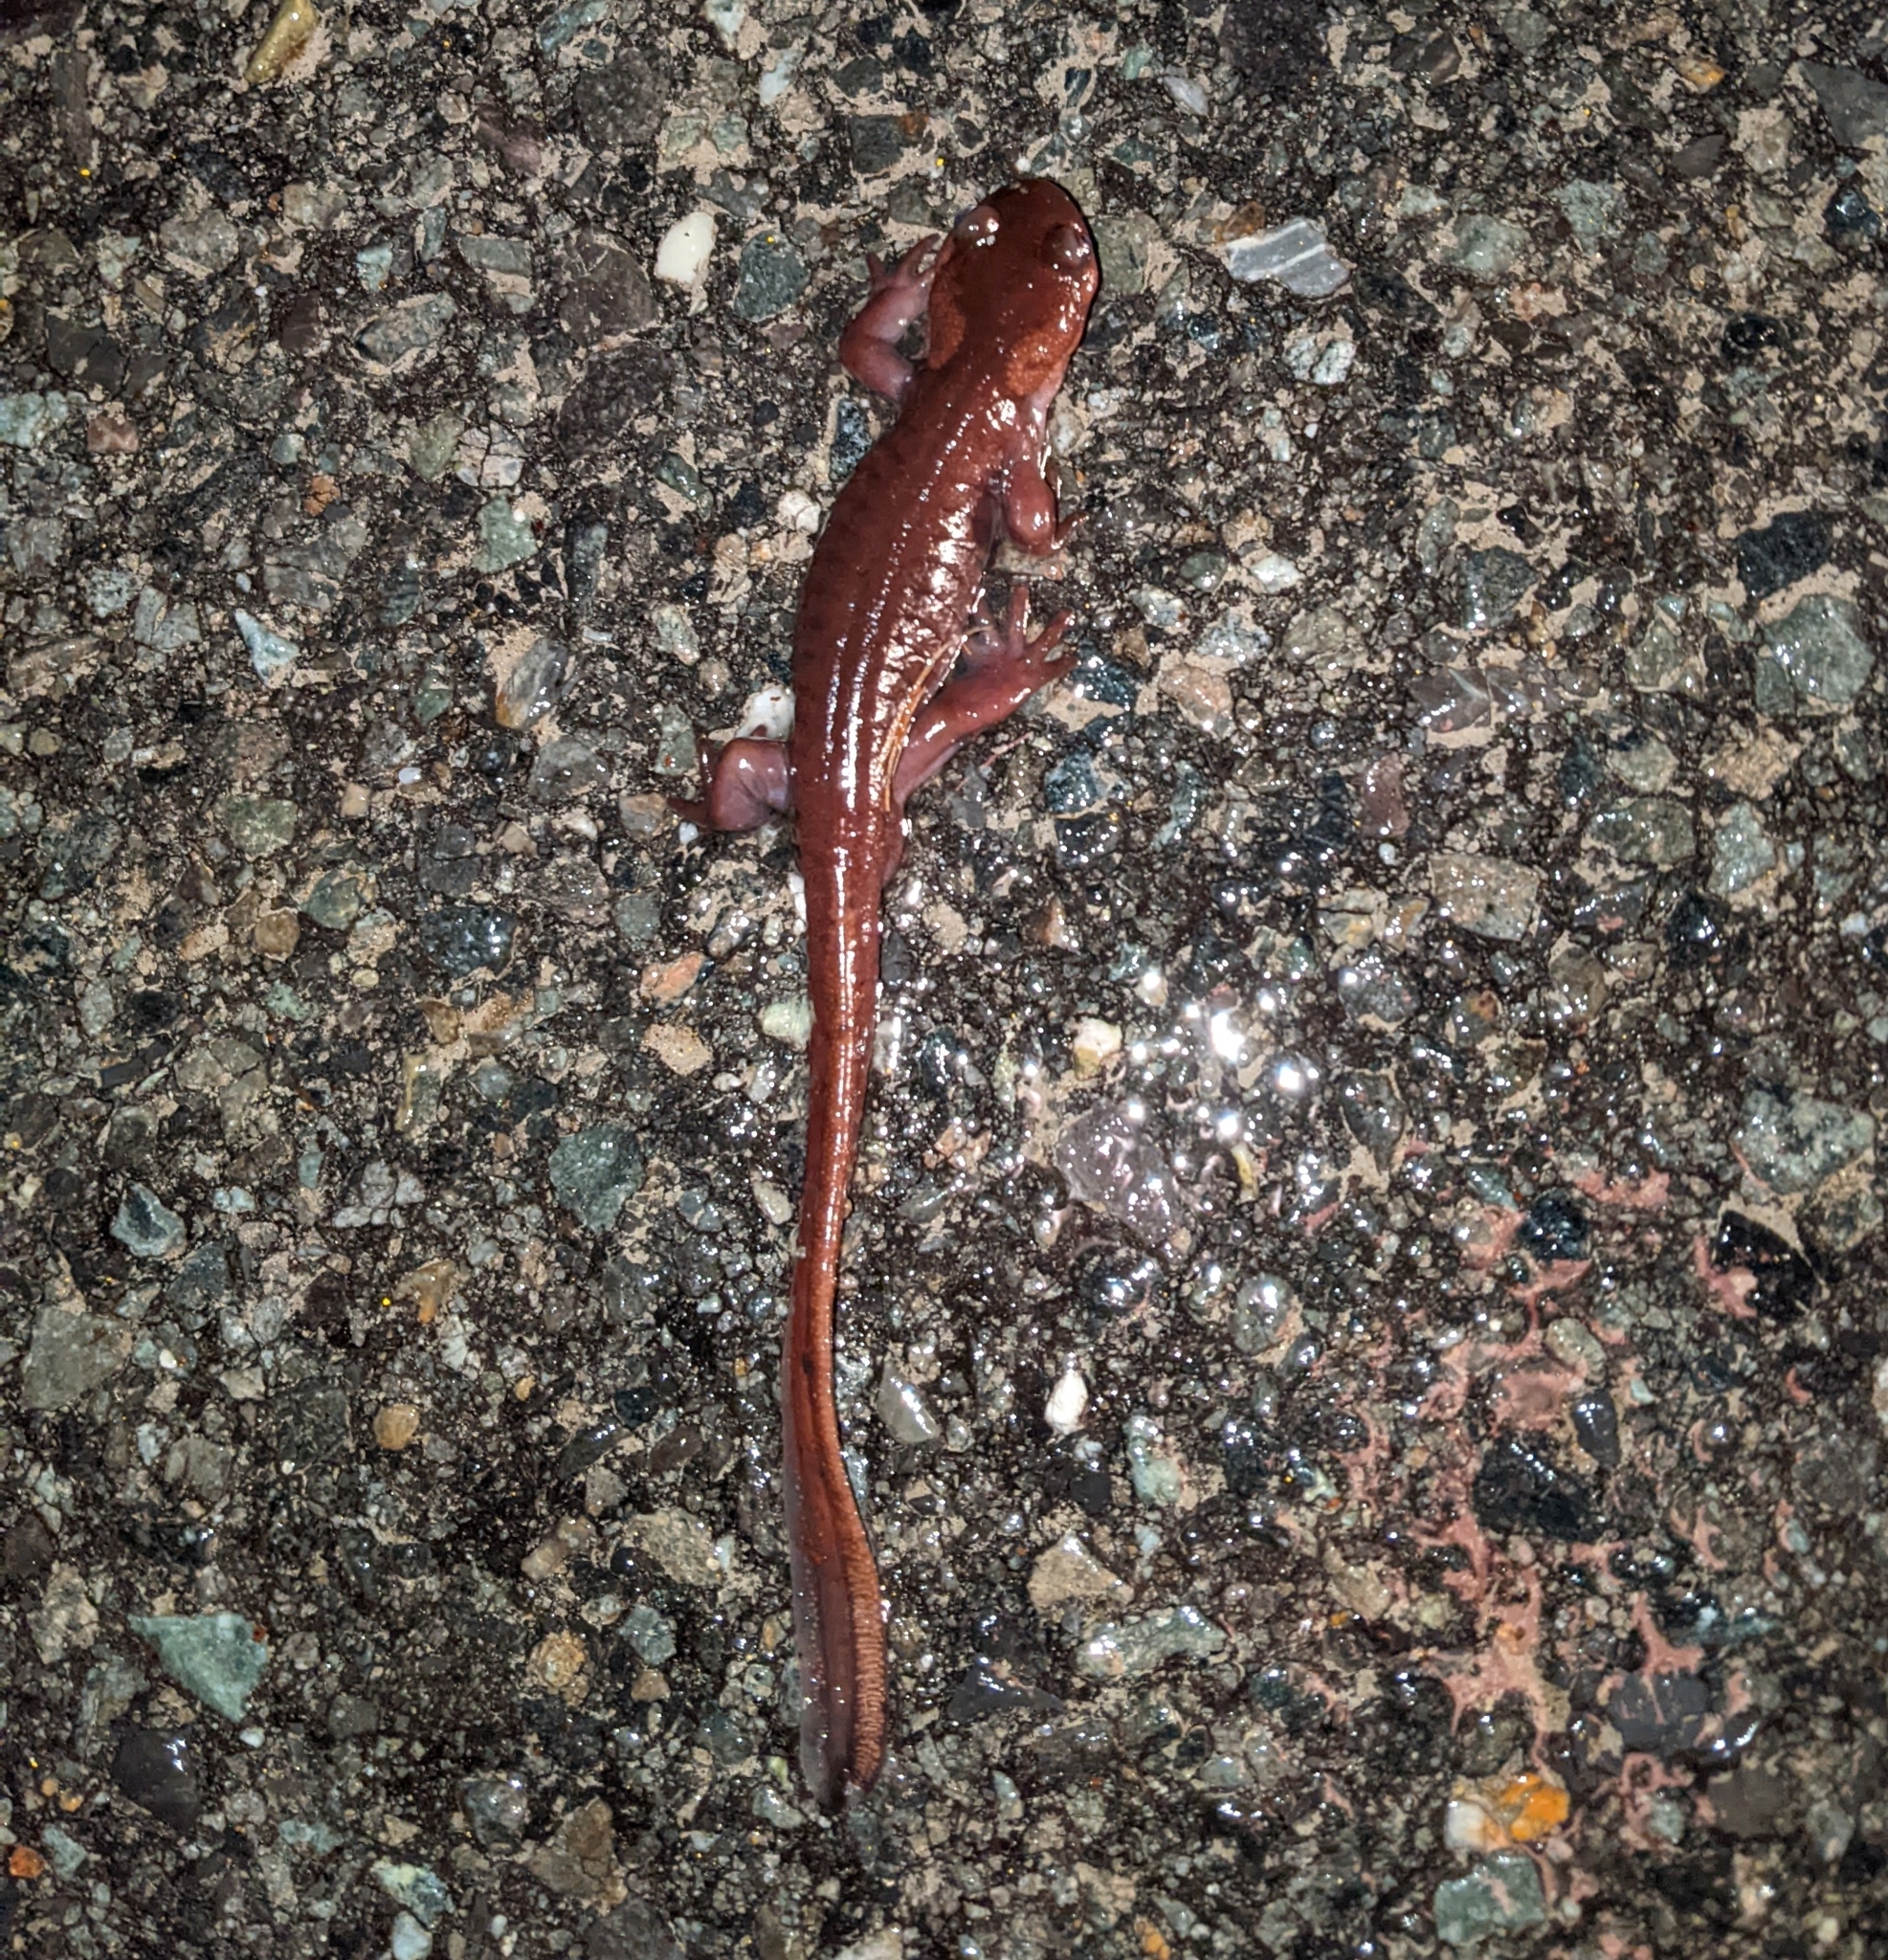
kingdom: Animalia
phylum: Chordata
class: Amphibia
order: Caudata
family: Ambystomatidae
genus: Ambystoma
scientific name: Ambystoma gracile
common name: Northwestern salamander
